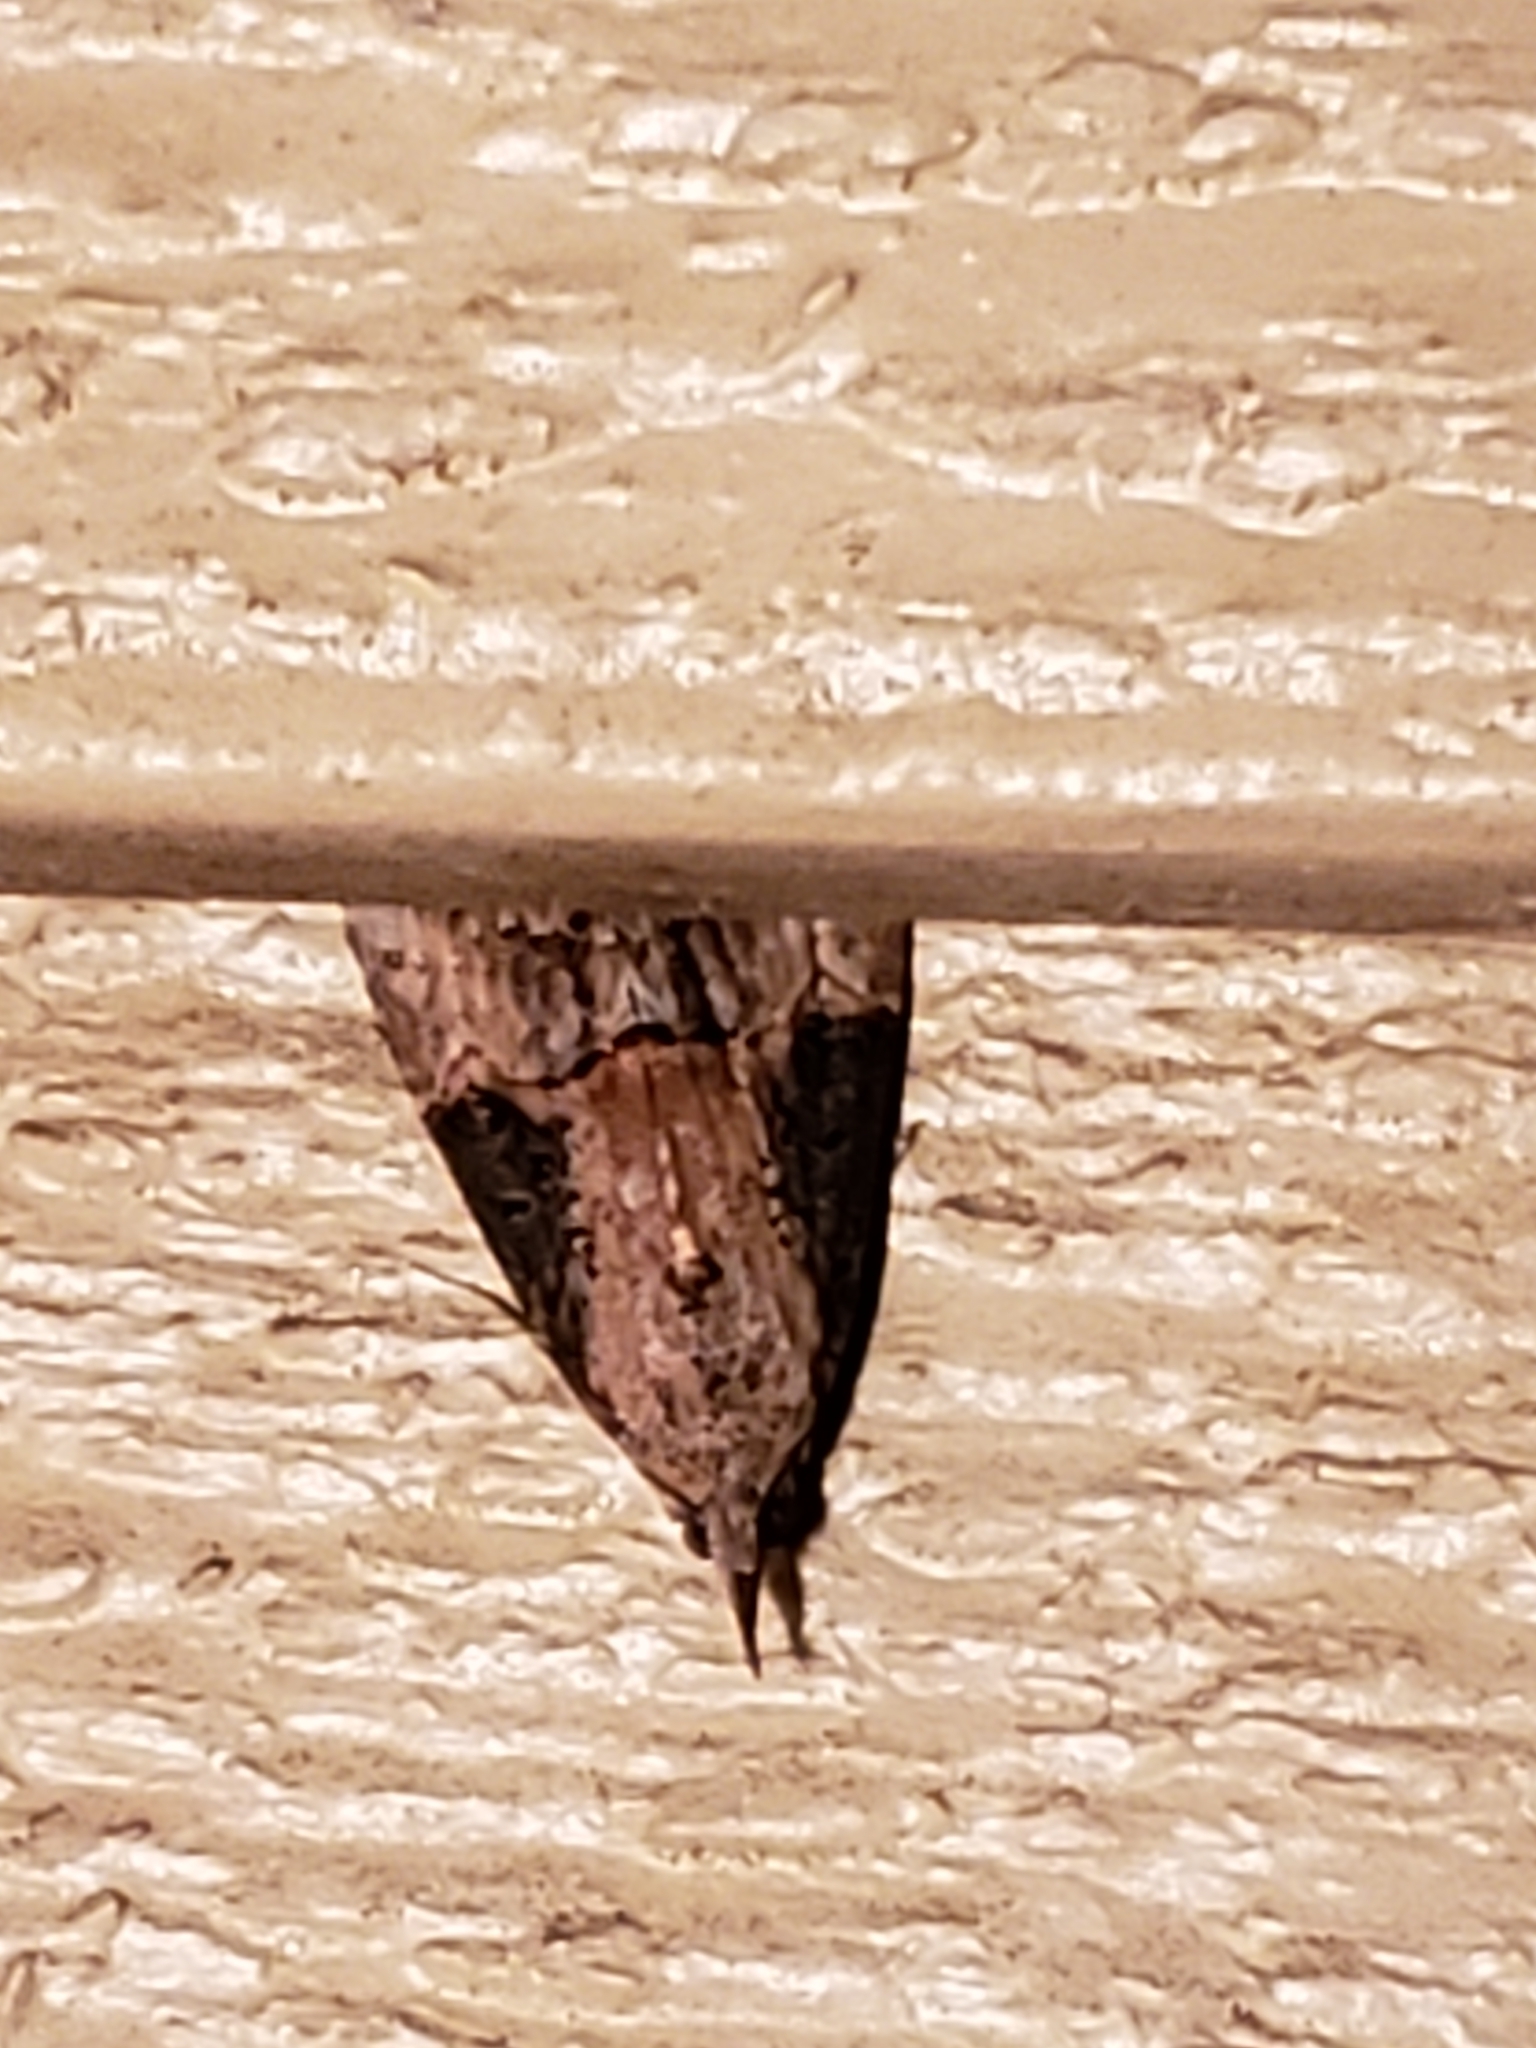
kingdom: Animalia
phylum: Arthropoda
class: Insecta
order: Lepidoptera
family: Erebidae
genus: Hypena
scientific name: Hypena scabra
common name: Green cloverworm
